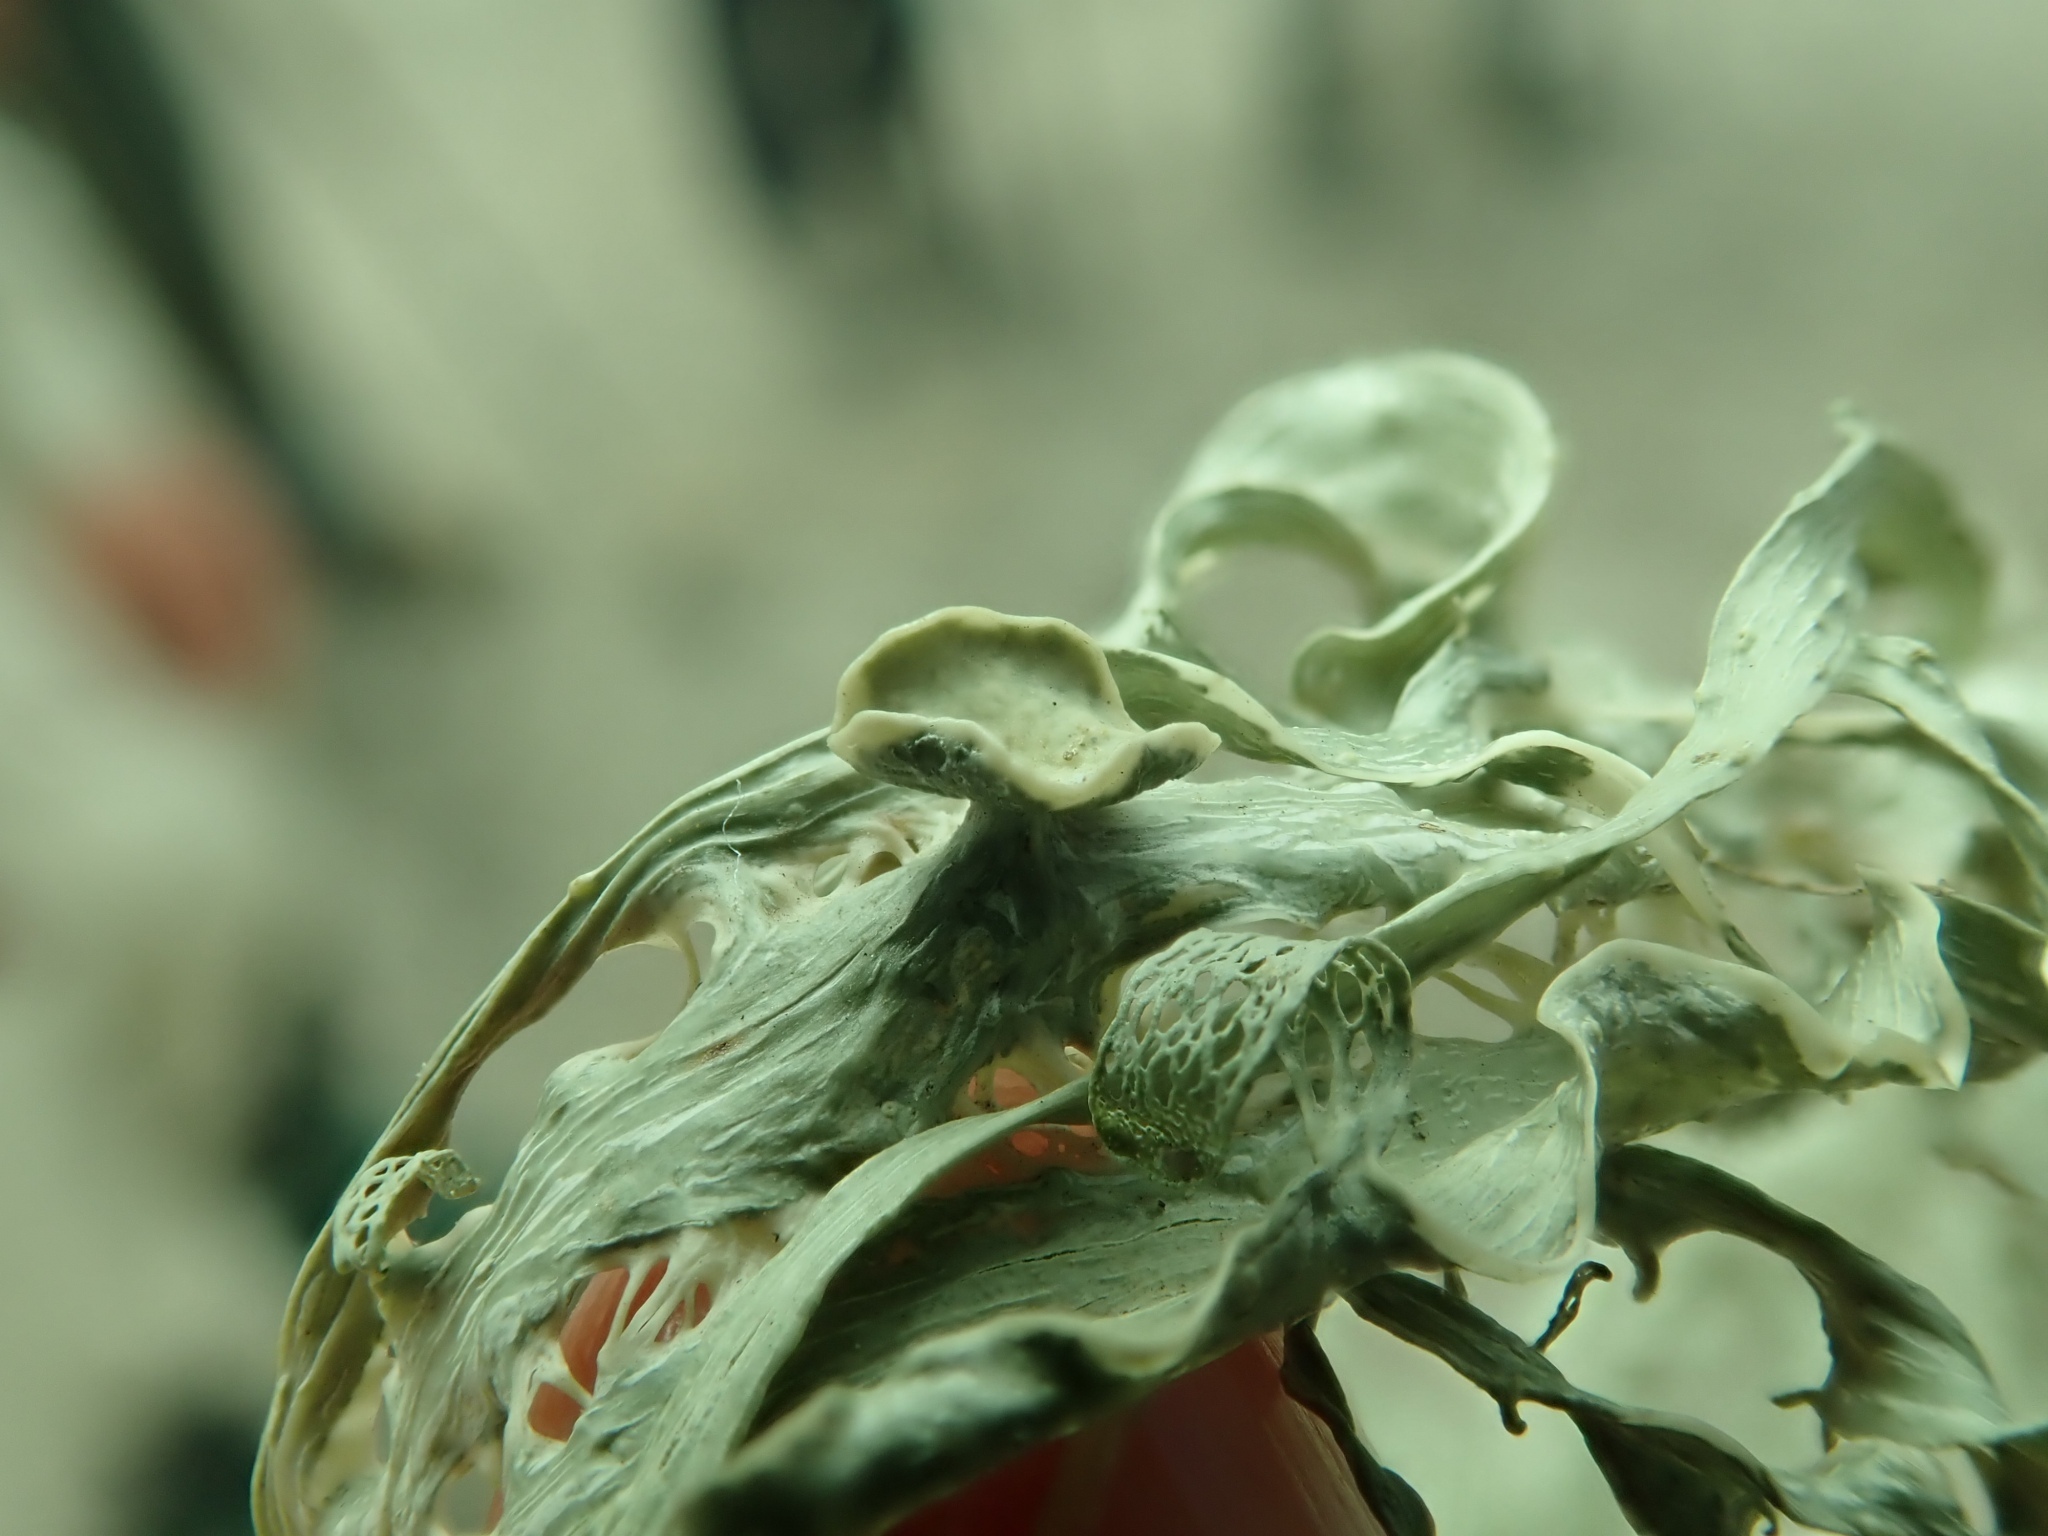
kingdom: Fungi
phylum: Ascomycota
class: Lecanoromycetes
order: Lecanorales
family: Ramalinaceae
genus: Ramalina
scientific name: Ramalina menziesii
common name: Lace lichen
